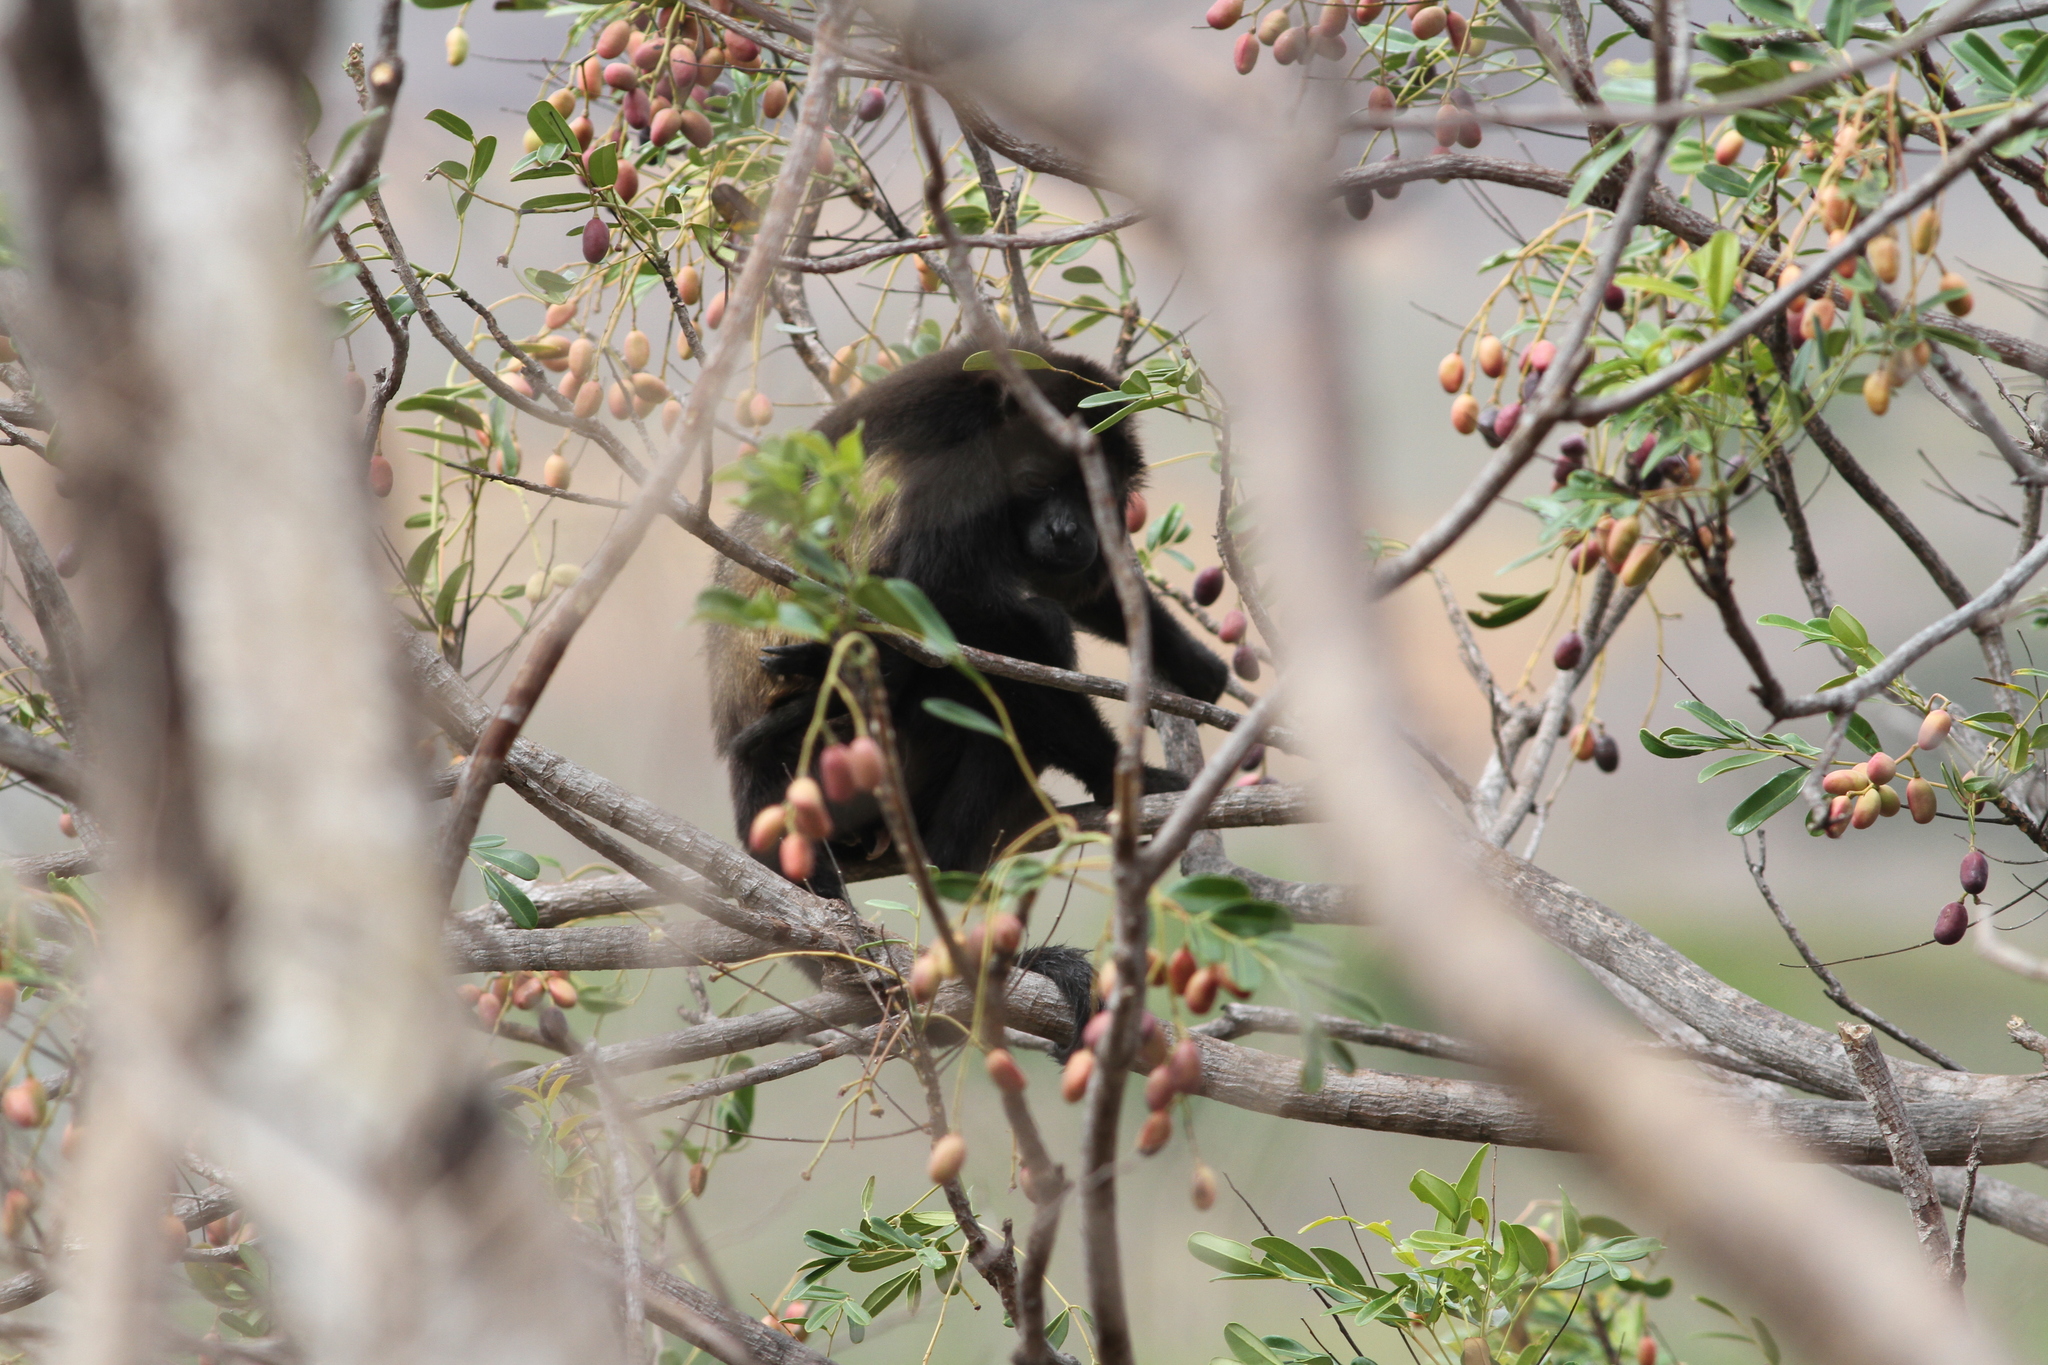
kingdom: Animalia
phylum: Chordata
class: Mammalia
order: Primates
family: Atelidae
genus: Alouatta
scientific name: Alouatta palliata
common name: Mantled howler
